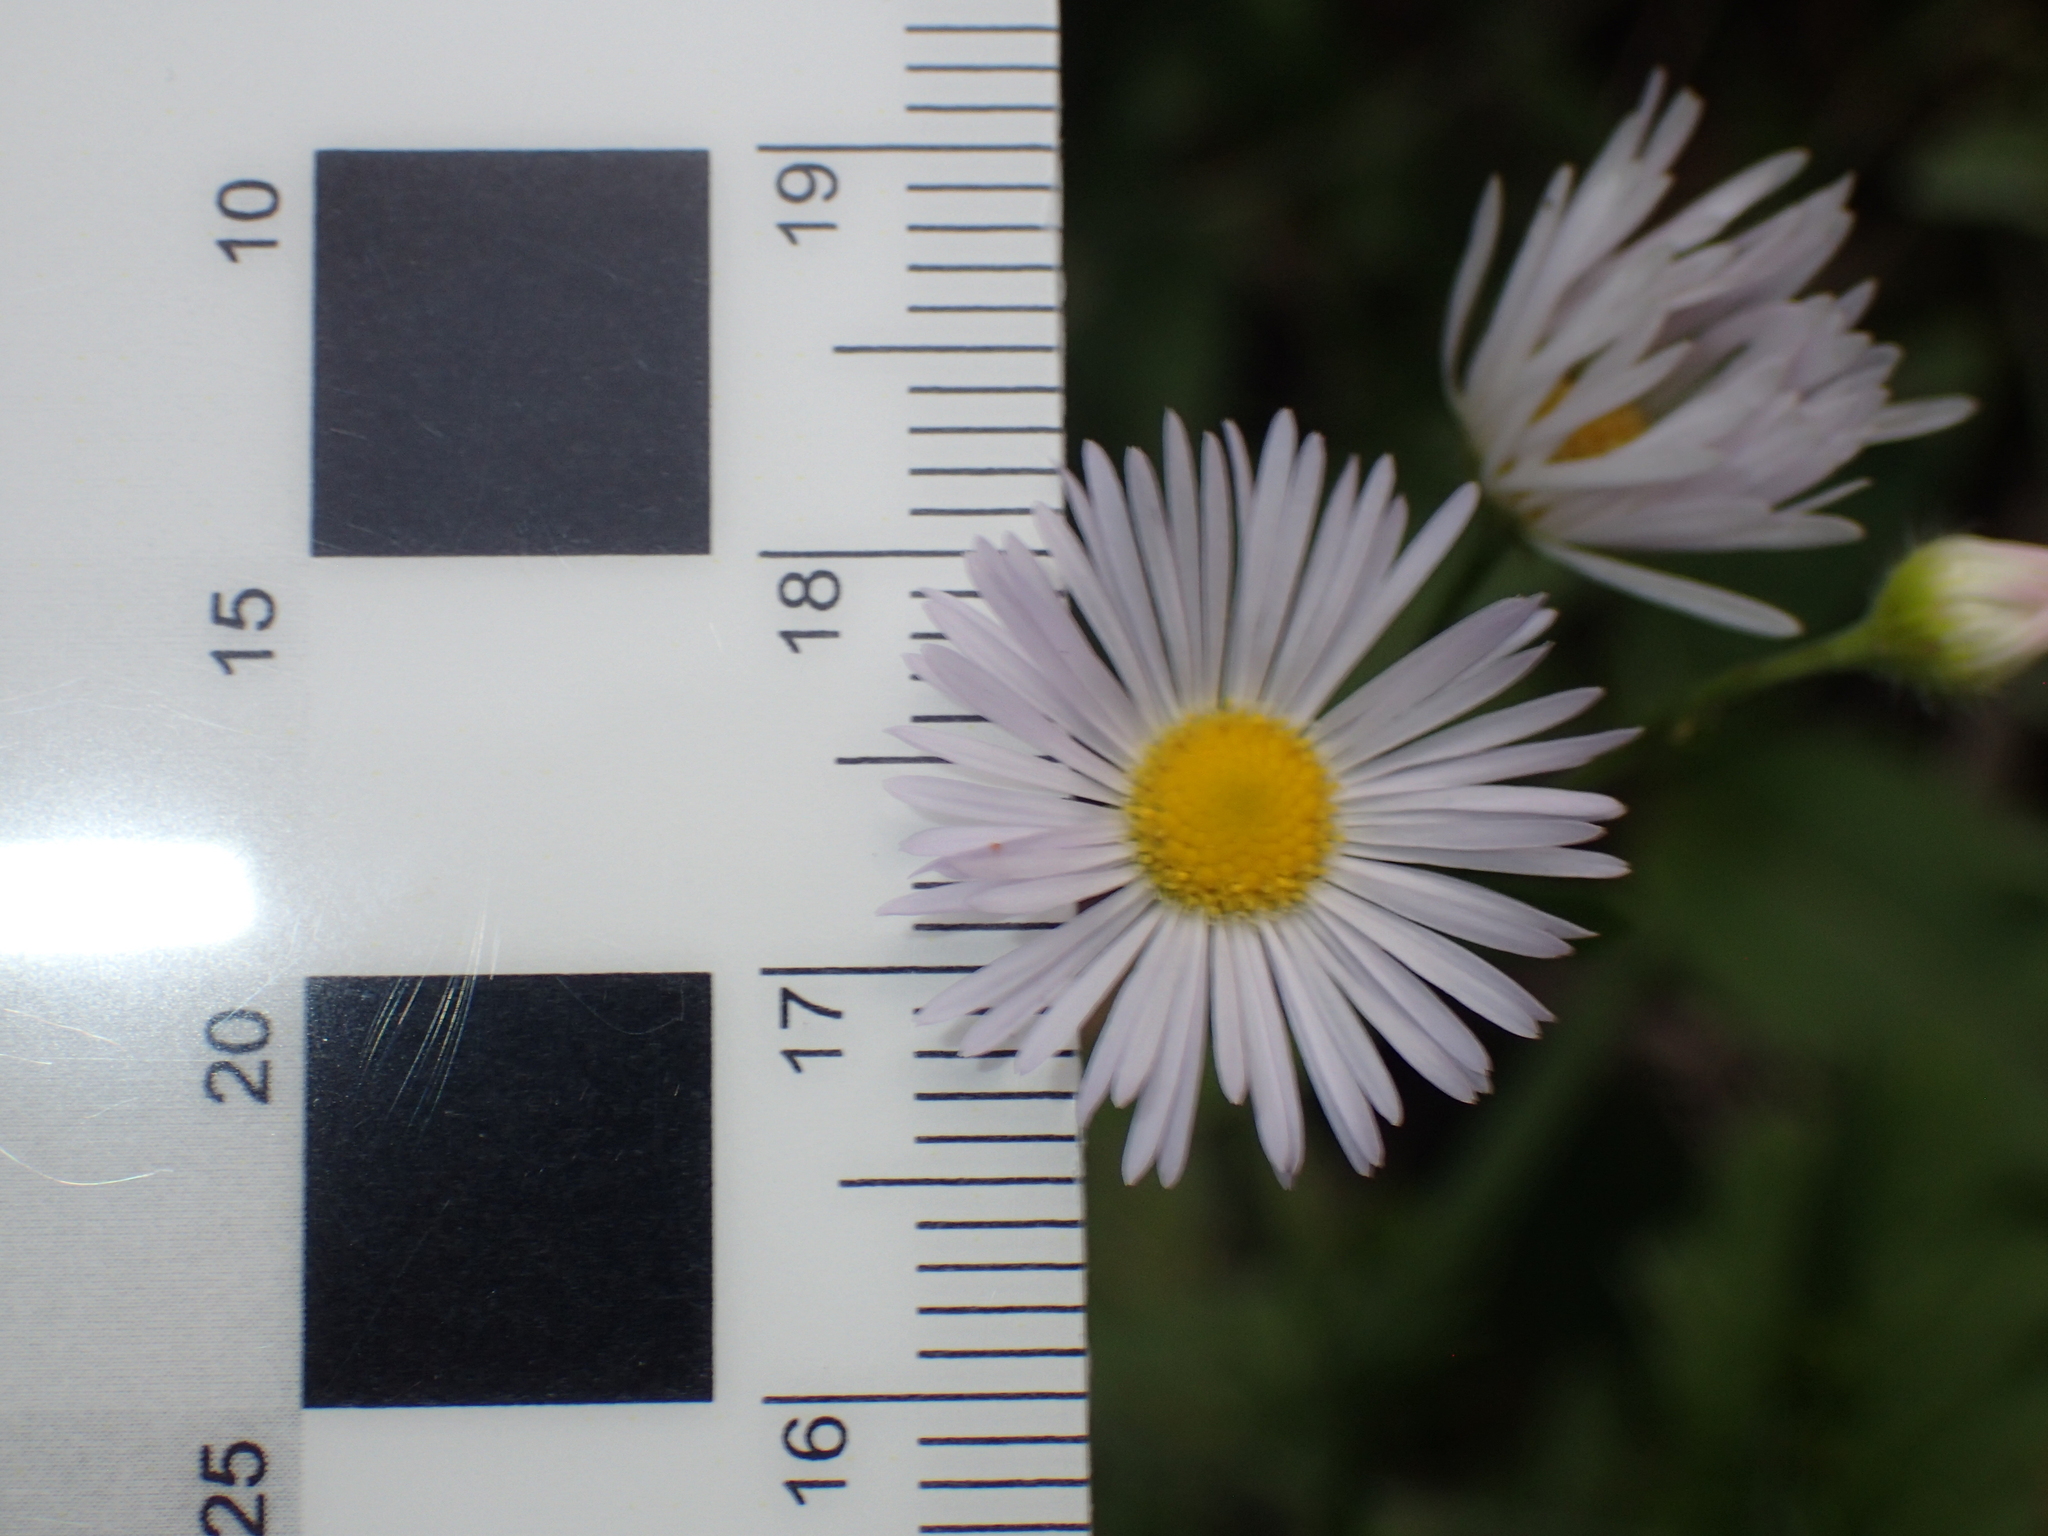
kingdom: Plantae
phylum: Tracheophyta
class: Magnoliopsida
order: Asterales
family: Asteraceae
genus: Erigeron
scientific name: Erigeron strigosus
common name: Common eastern fleabane
